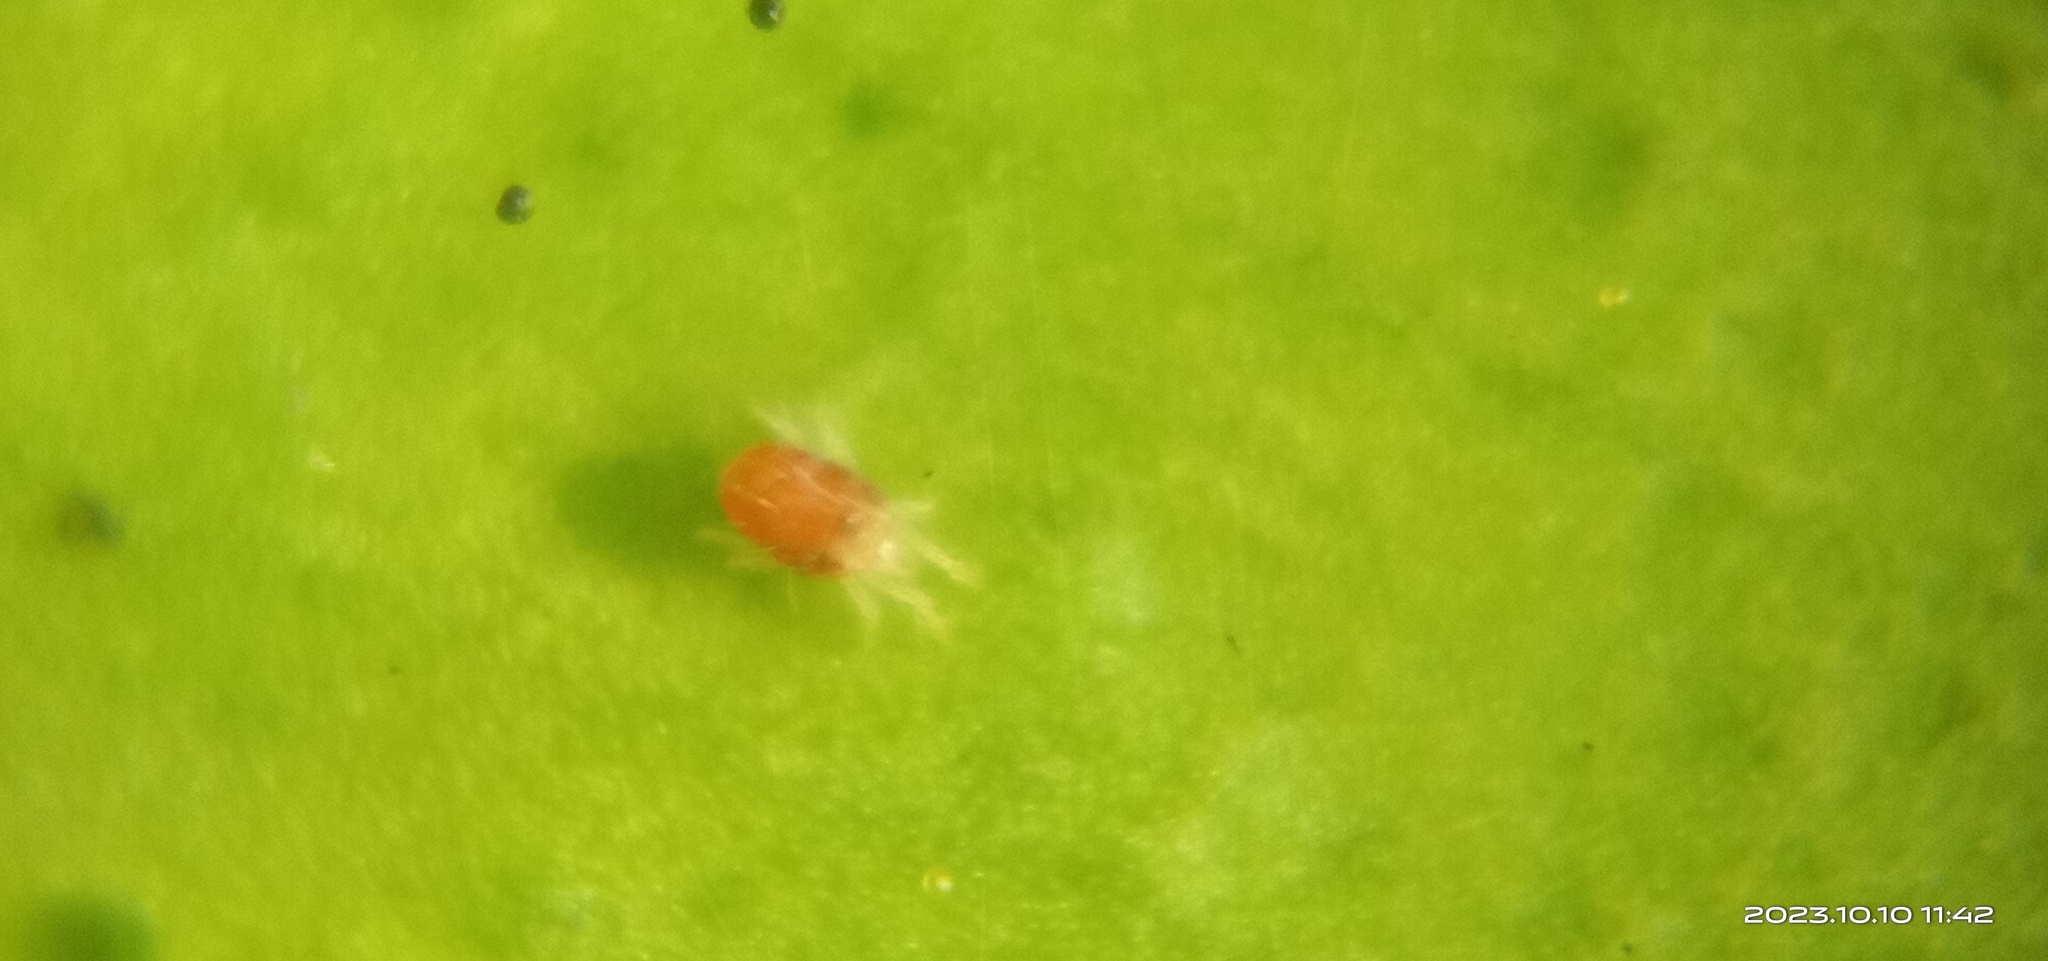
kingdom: Animalia
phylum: Arthropoda
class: Arachnida
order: Trombidiformes
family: Tetranychidae
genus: Tetranychus
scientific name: Tetranychus urticae
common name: Carmine spider mite
